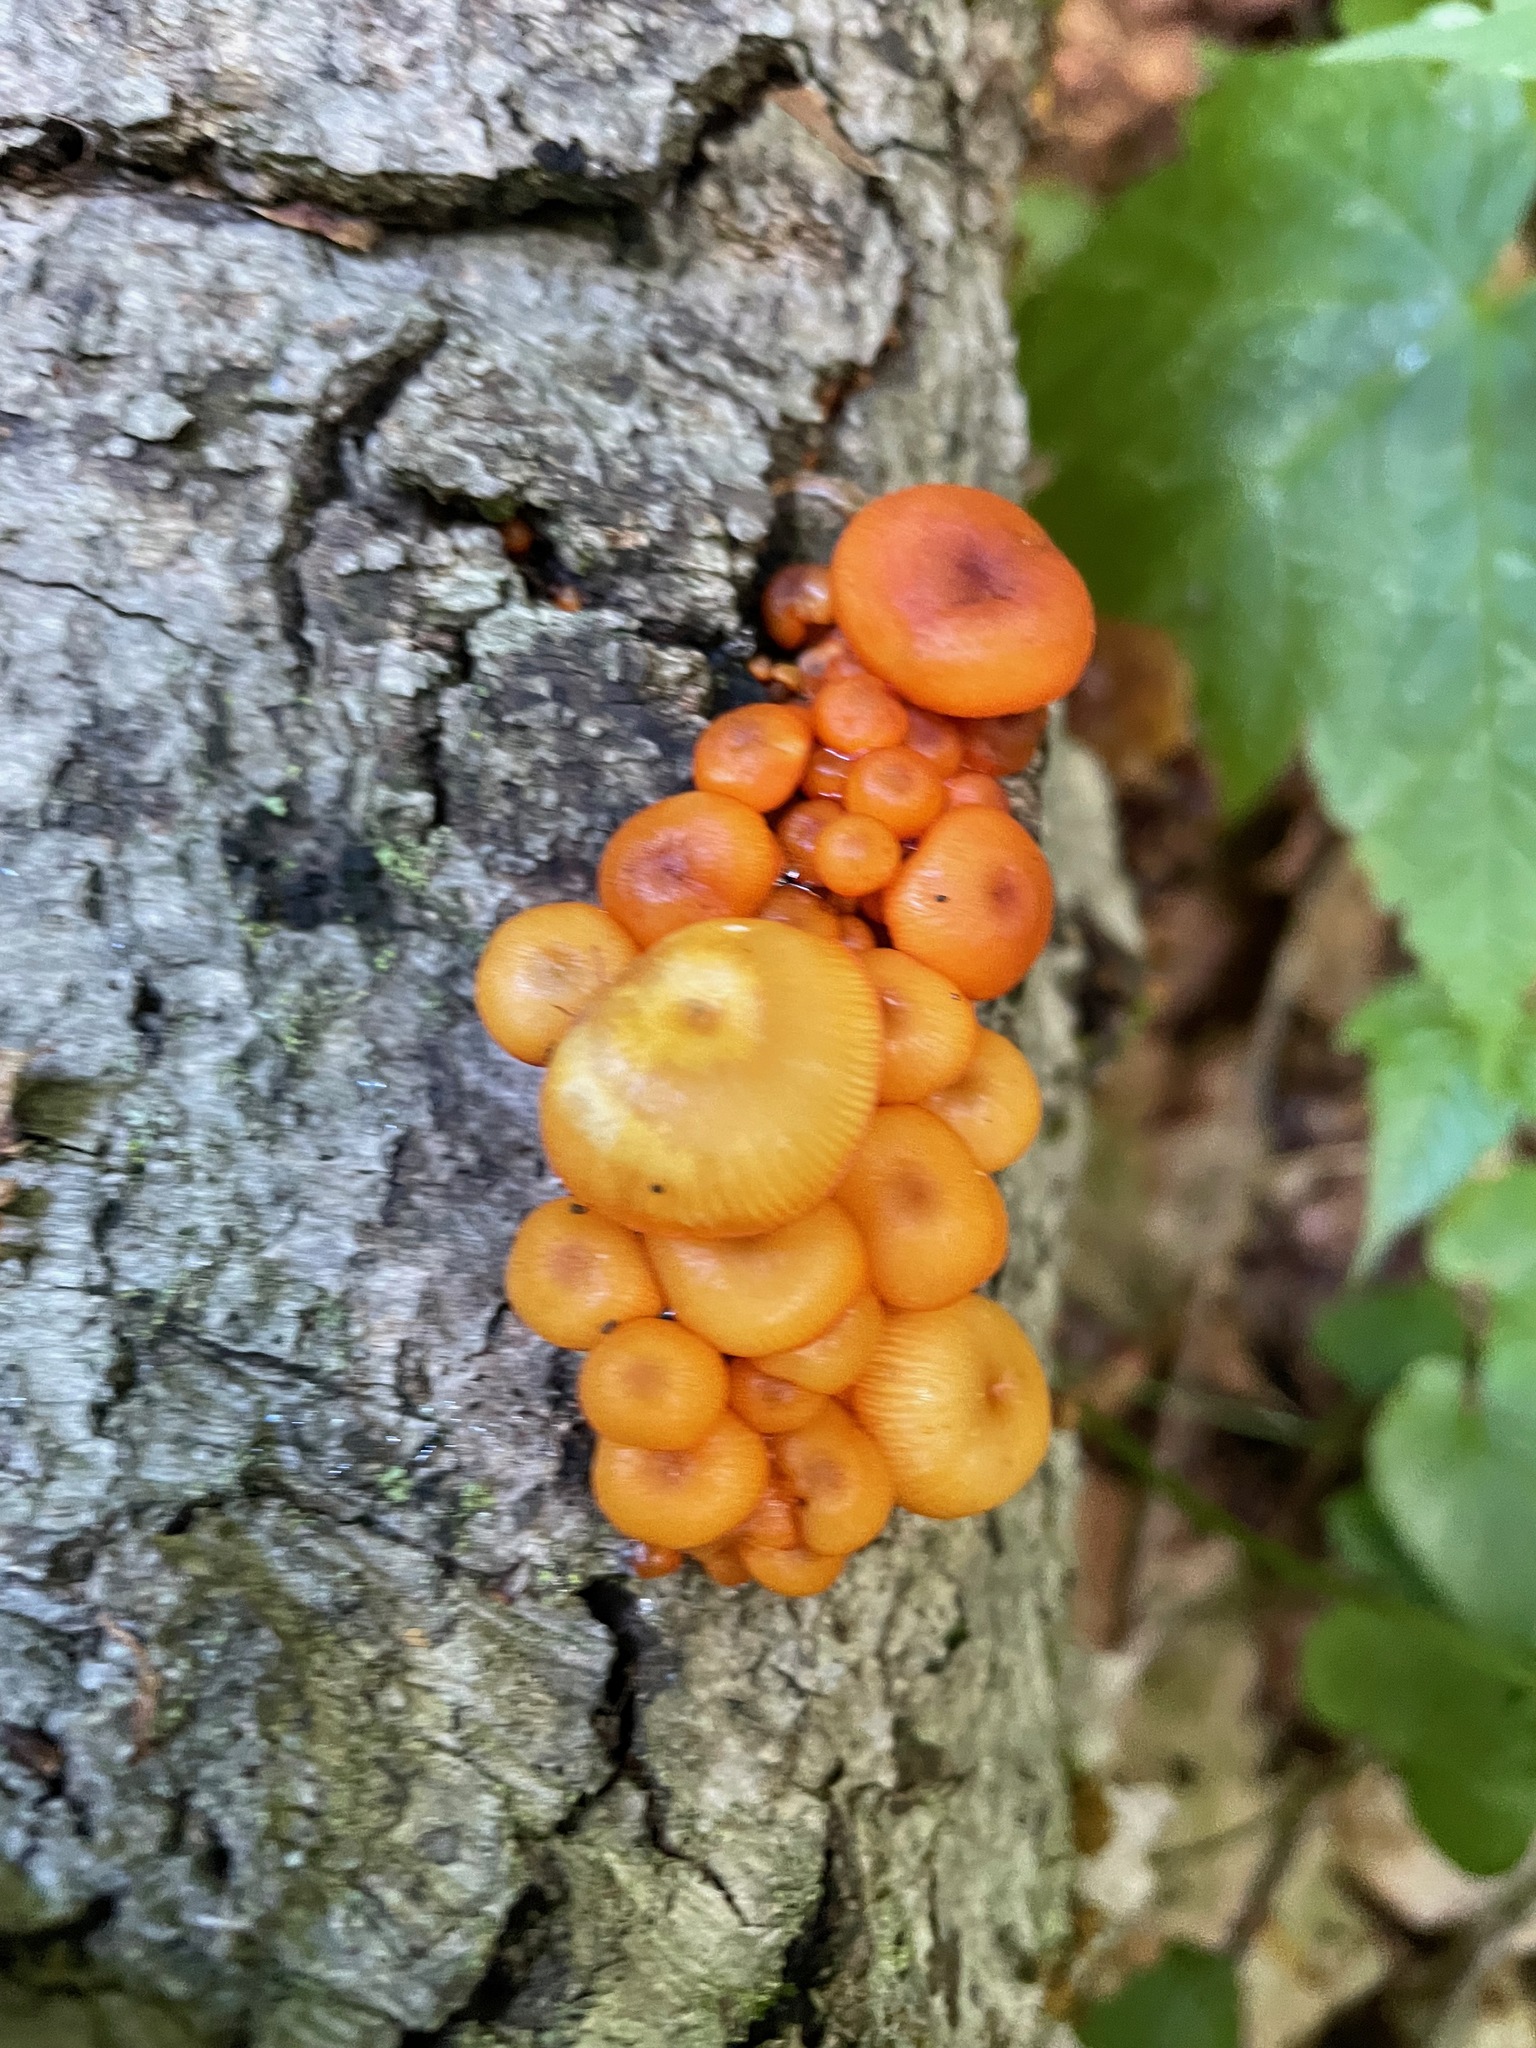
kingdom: Fungi
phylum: Basidiomycota
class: Agaricomycetes
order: Agaricales
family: Mycenaceae
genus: Mycena
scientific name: Mycena leaiana
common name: Orange mycena
